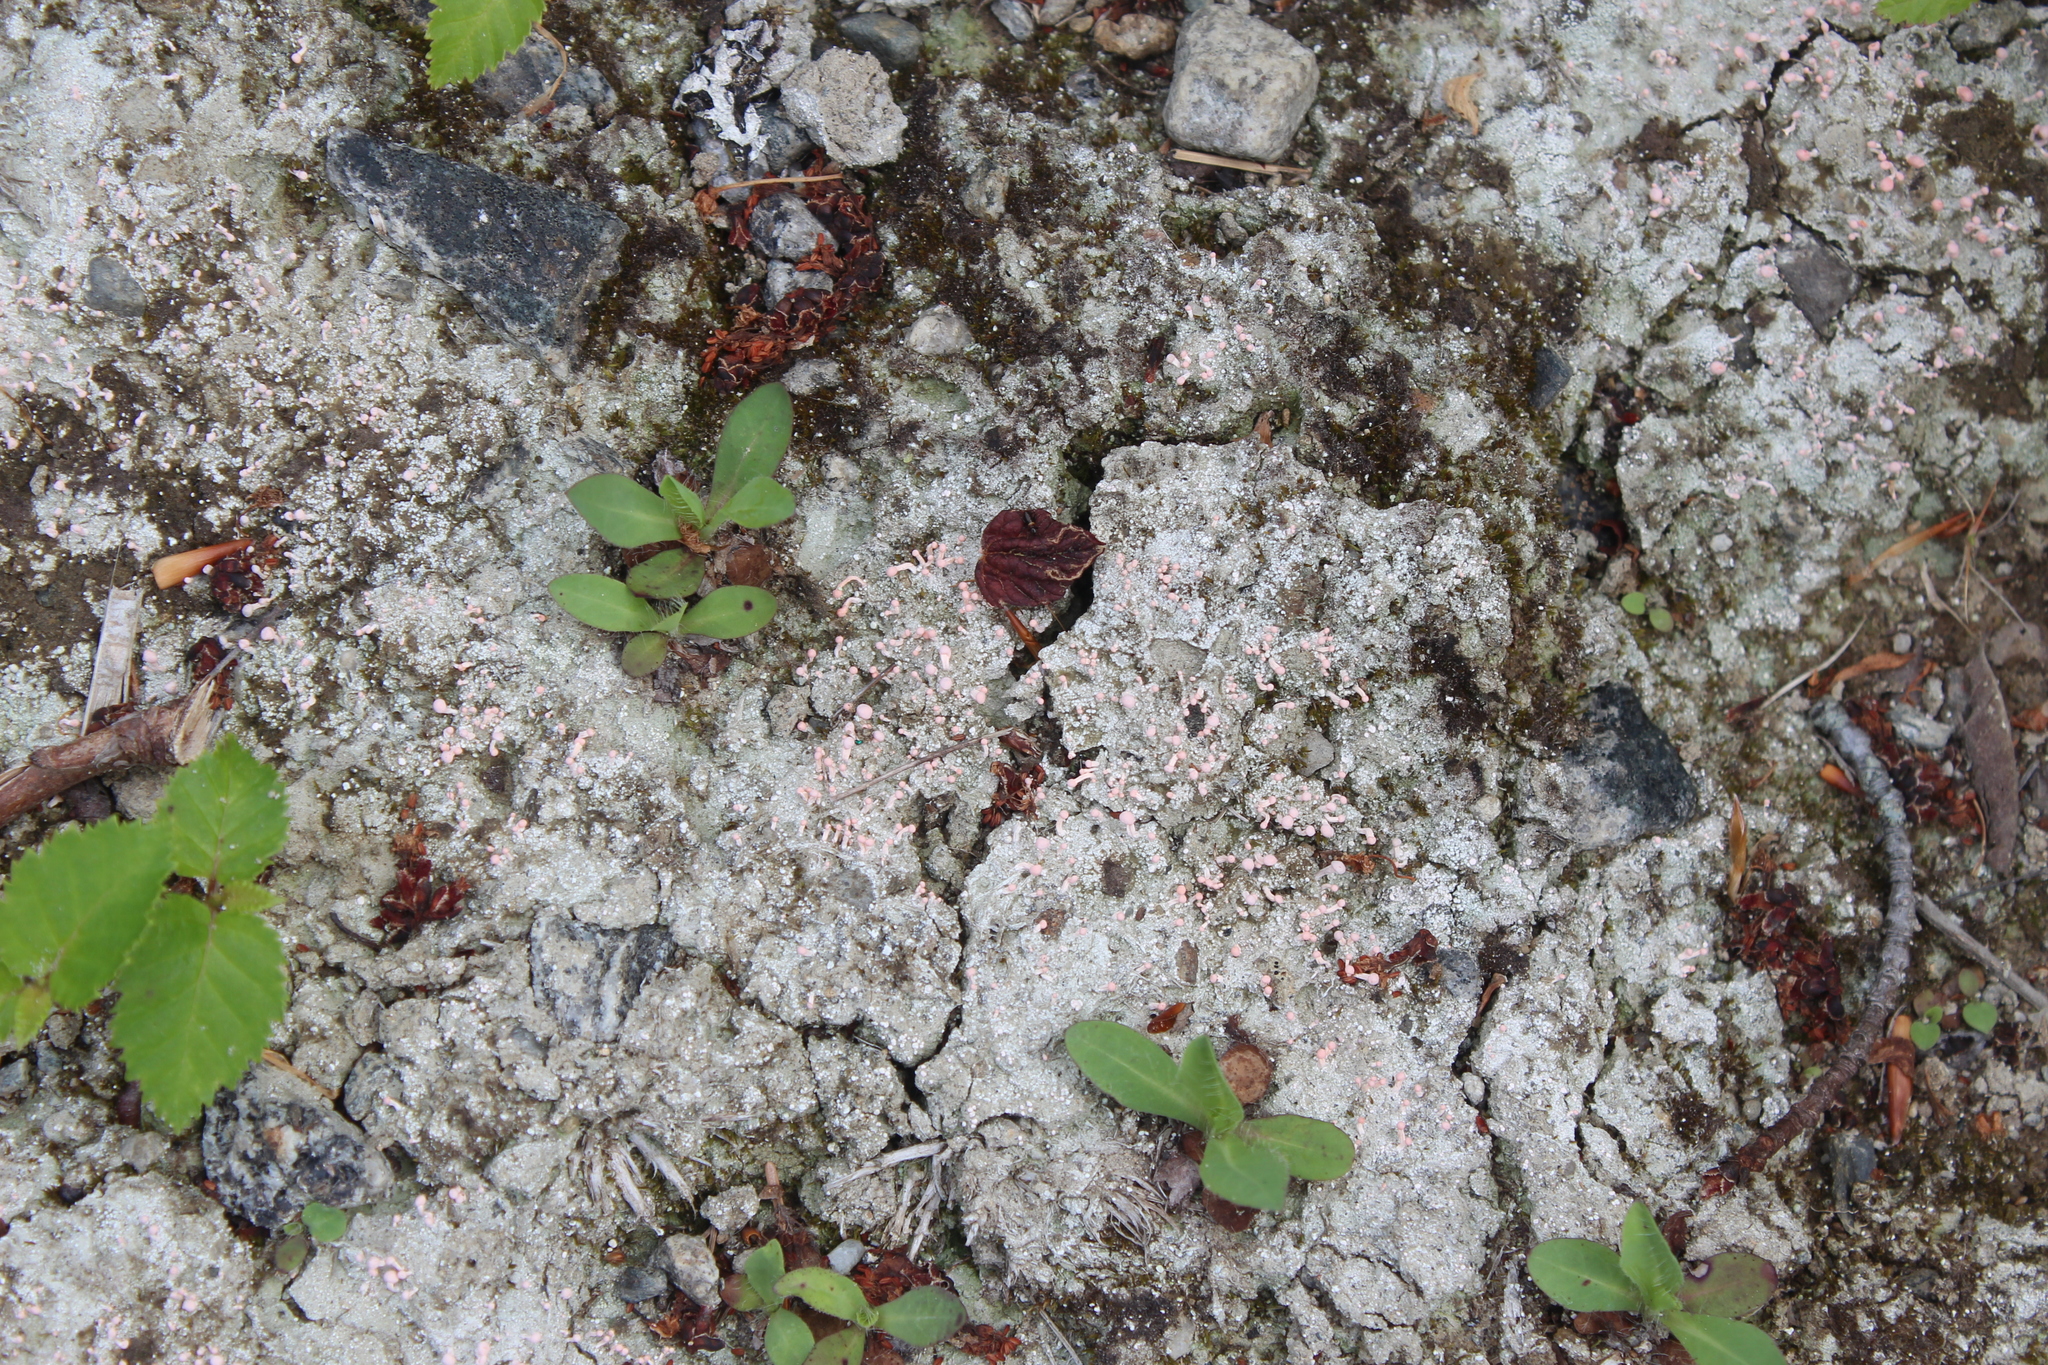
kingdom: Fungi
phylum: Ascomycota
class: Lecanoromycetes
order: Pertusariales
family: Icmadophilaceae
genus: Dibaeis
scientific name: Dibaeis baeomyces
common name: Pink earth lichen
